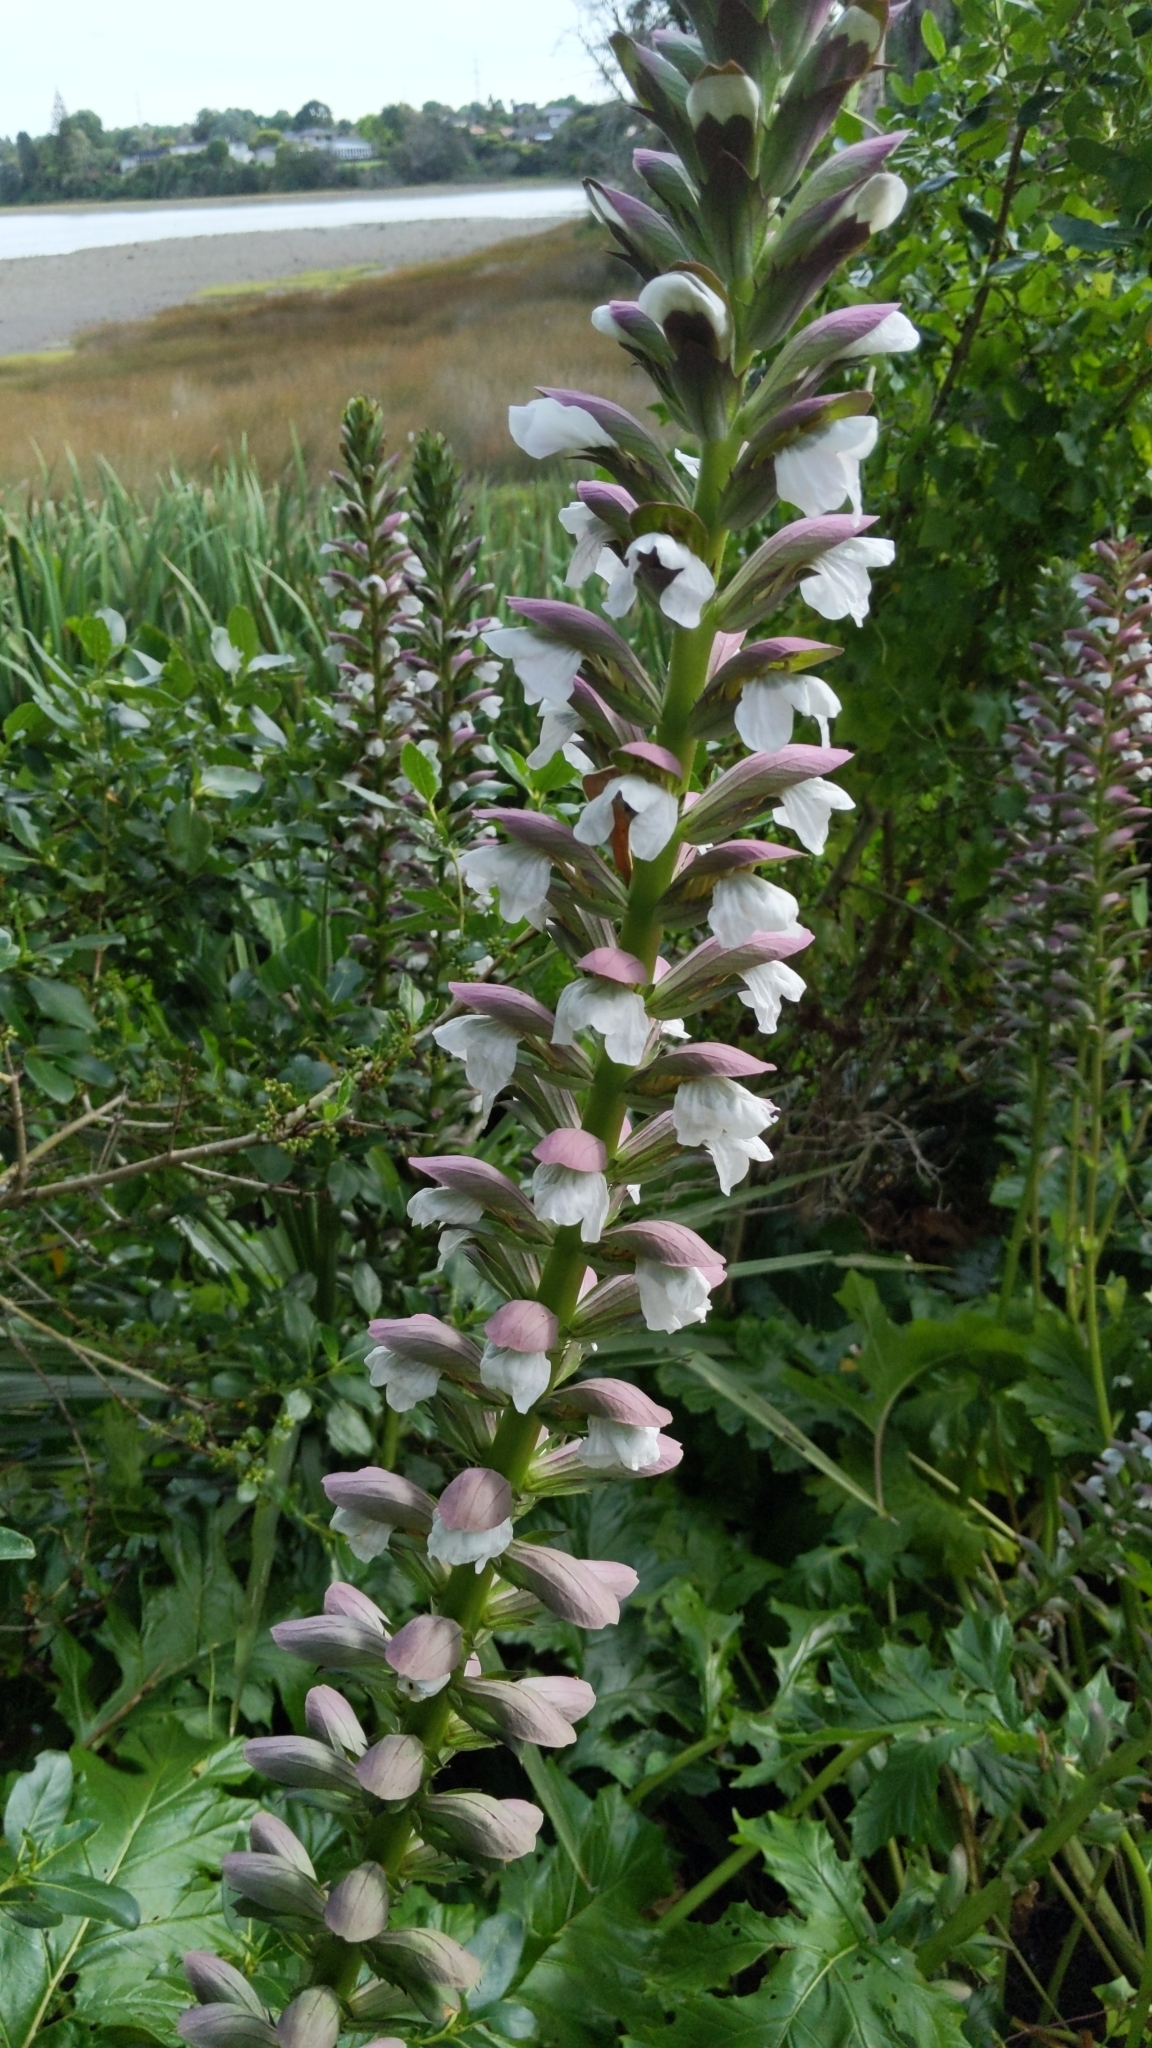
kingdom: Plantae
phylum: Tracheophyta
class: Magnoliopsida
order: Lamiales
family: Acanthaceae
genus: Acanthus
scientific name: Acanthus mollis
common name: Bear's-breech
